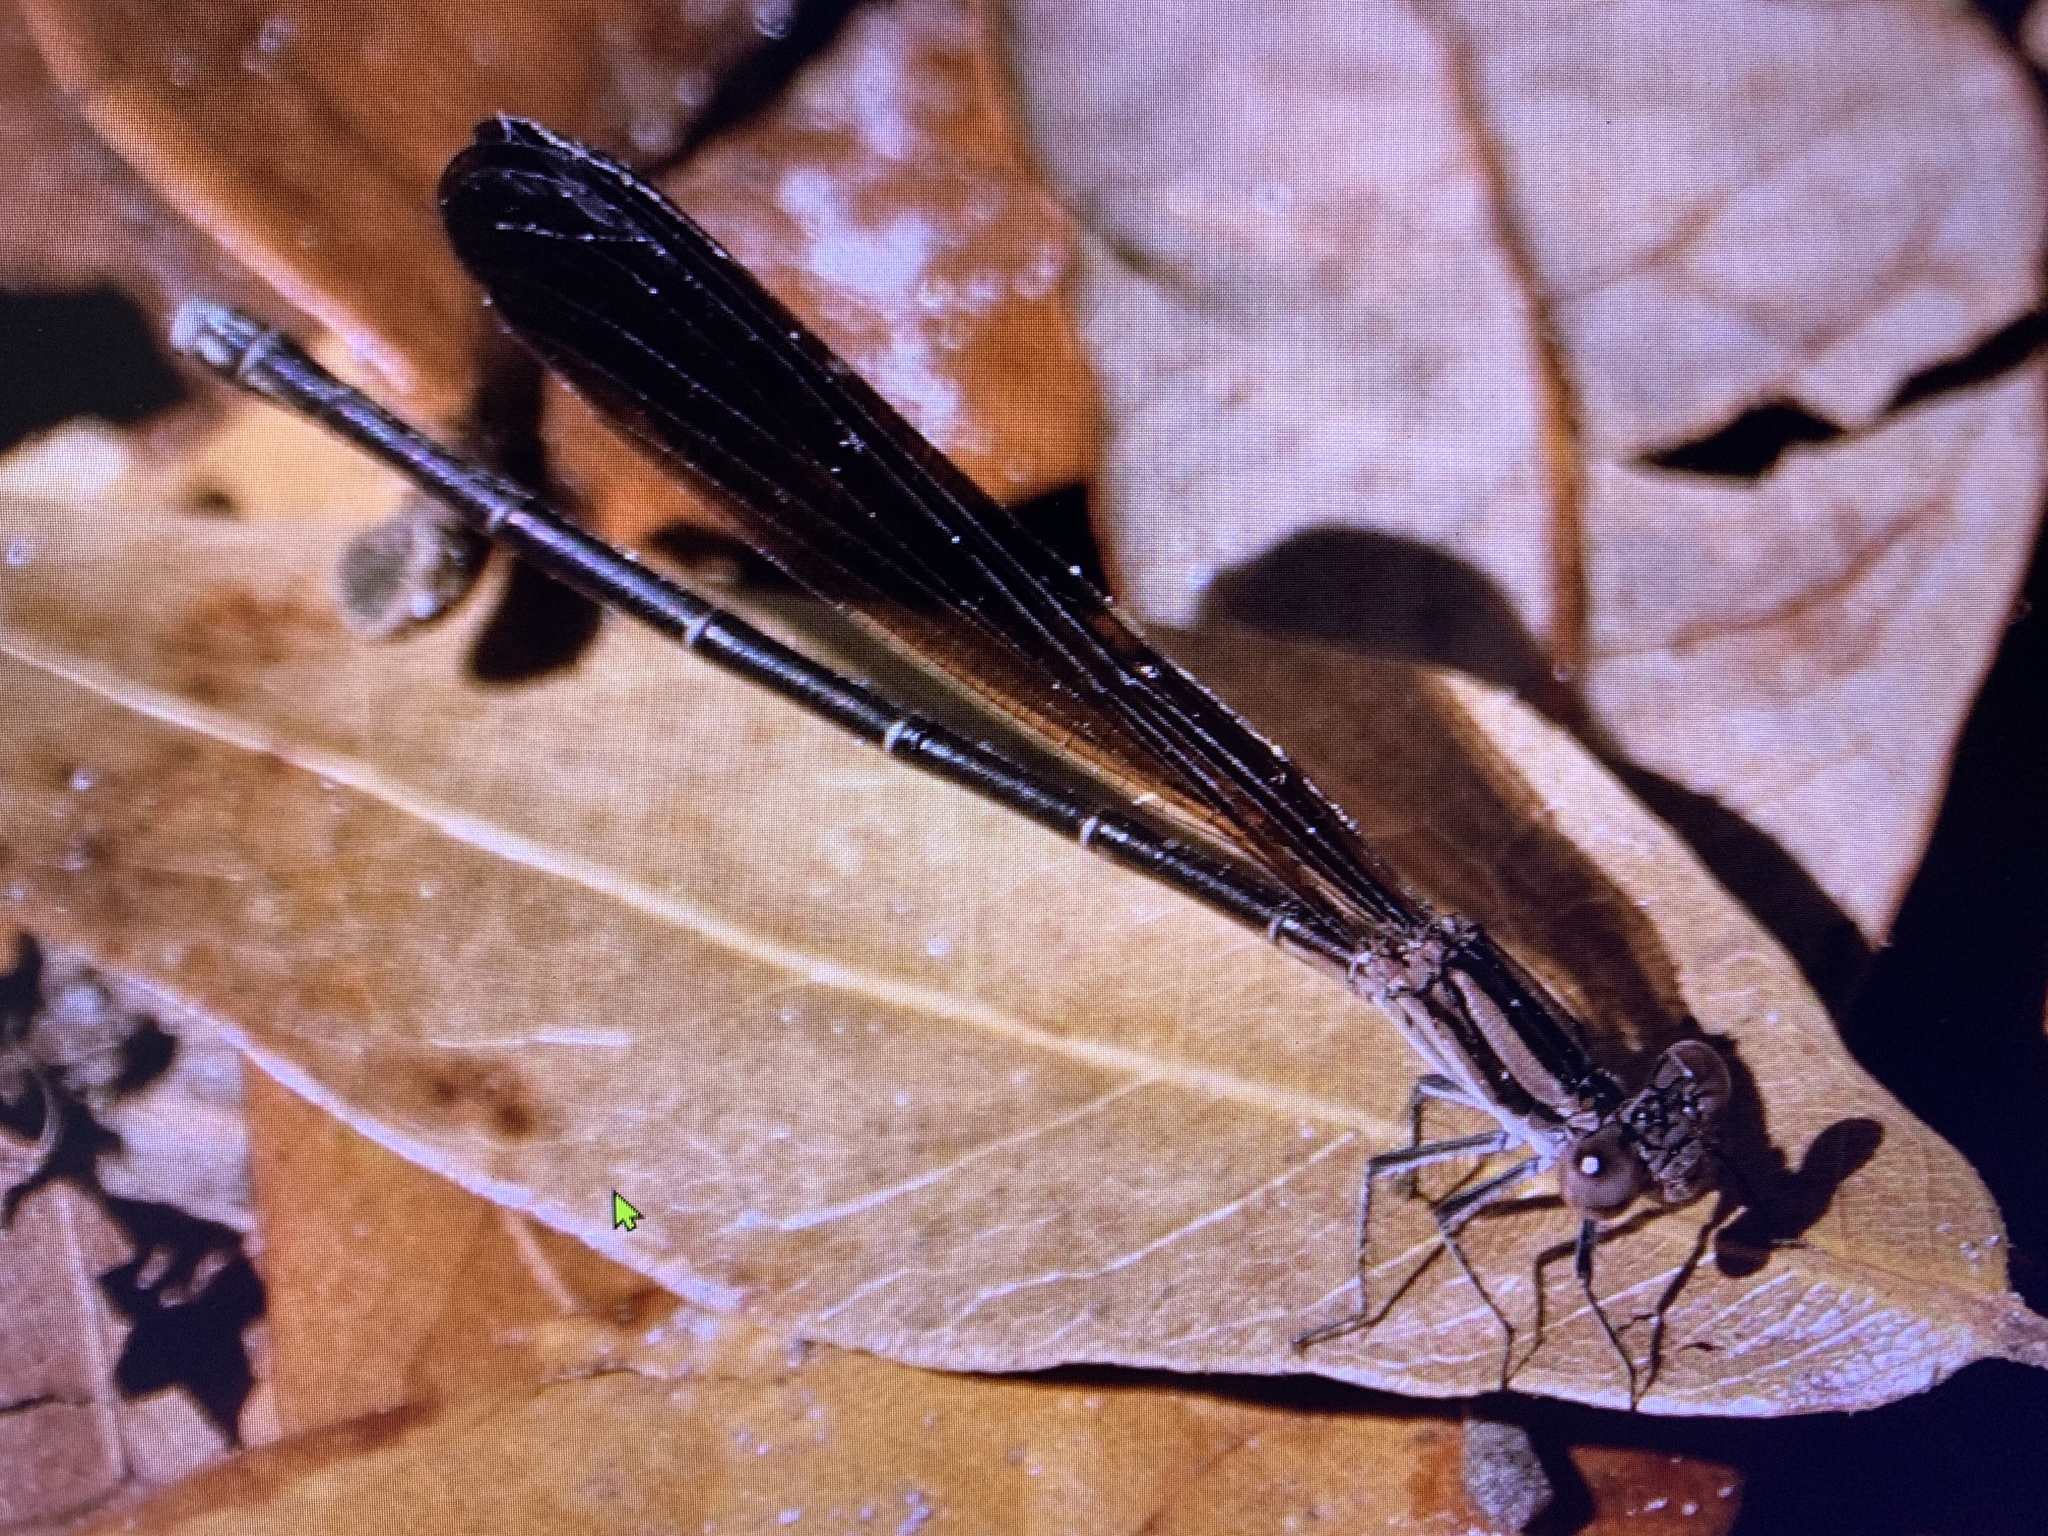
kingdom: Animalia
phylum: Arthropoda
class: Insecta
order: Odonata
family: Coenagrionidae
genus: Argia
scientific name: Argia fumipennis
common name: Variable dancer
